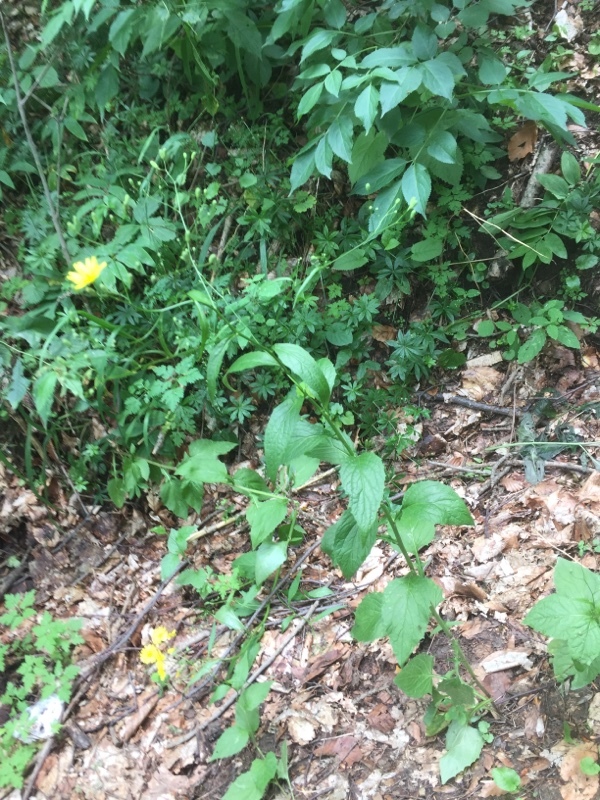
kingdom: Plantae
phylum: Tracheophyta
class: Magnoliopsida
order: Asterales
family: Asteraceae
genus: Lapsana
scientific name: Lapsana communis
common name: Nipplewort
